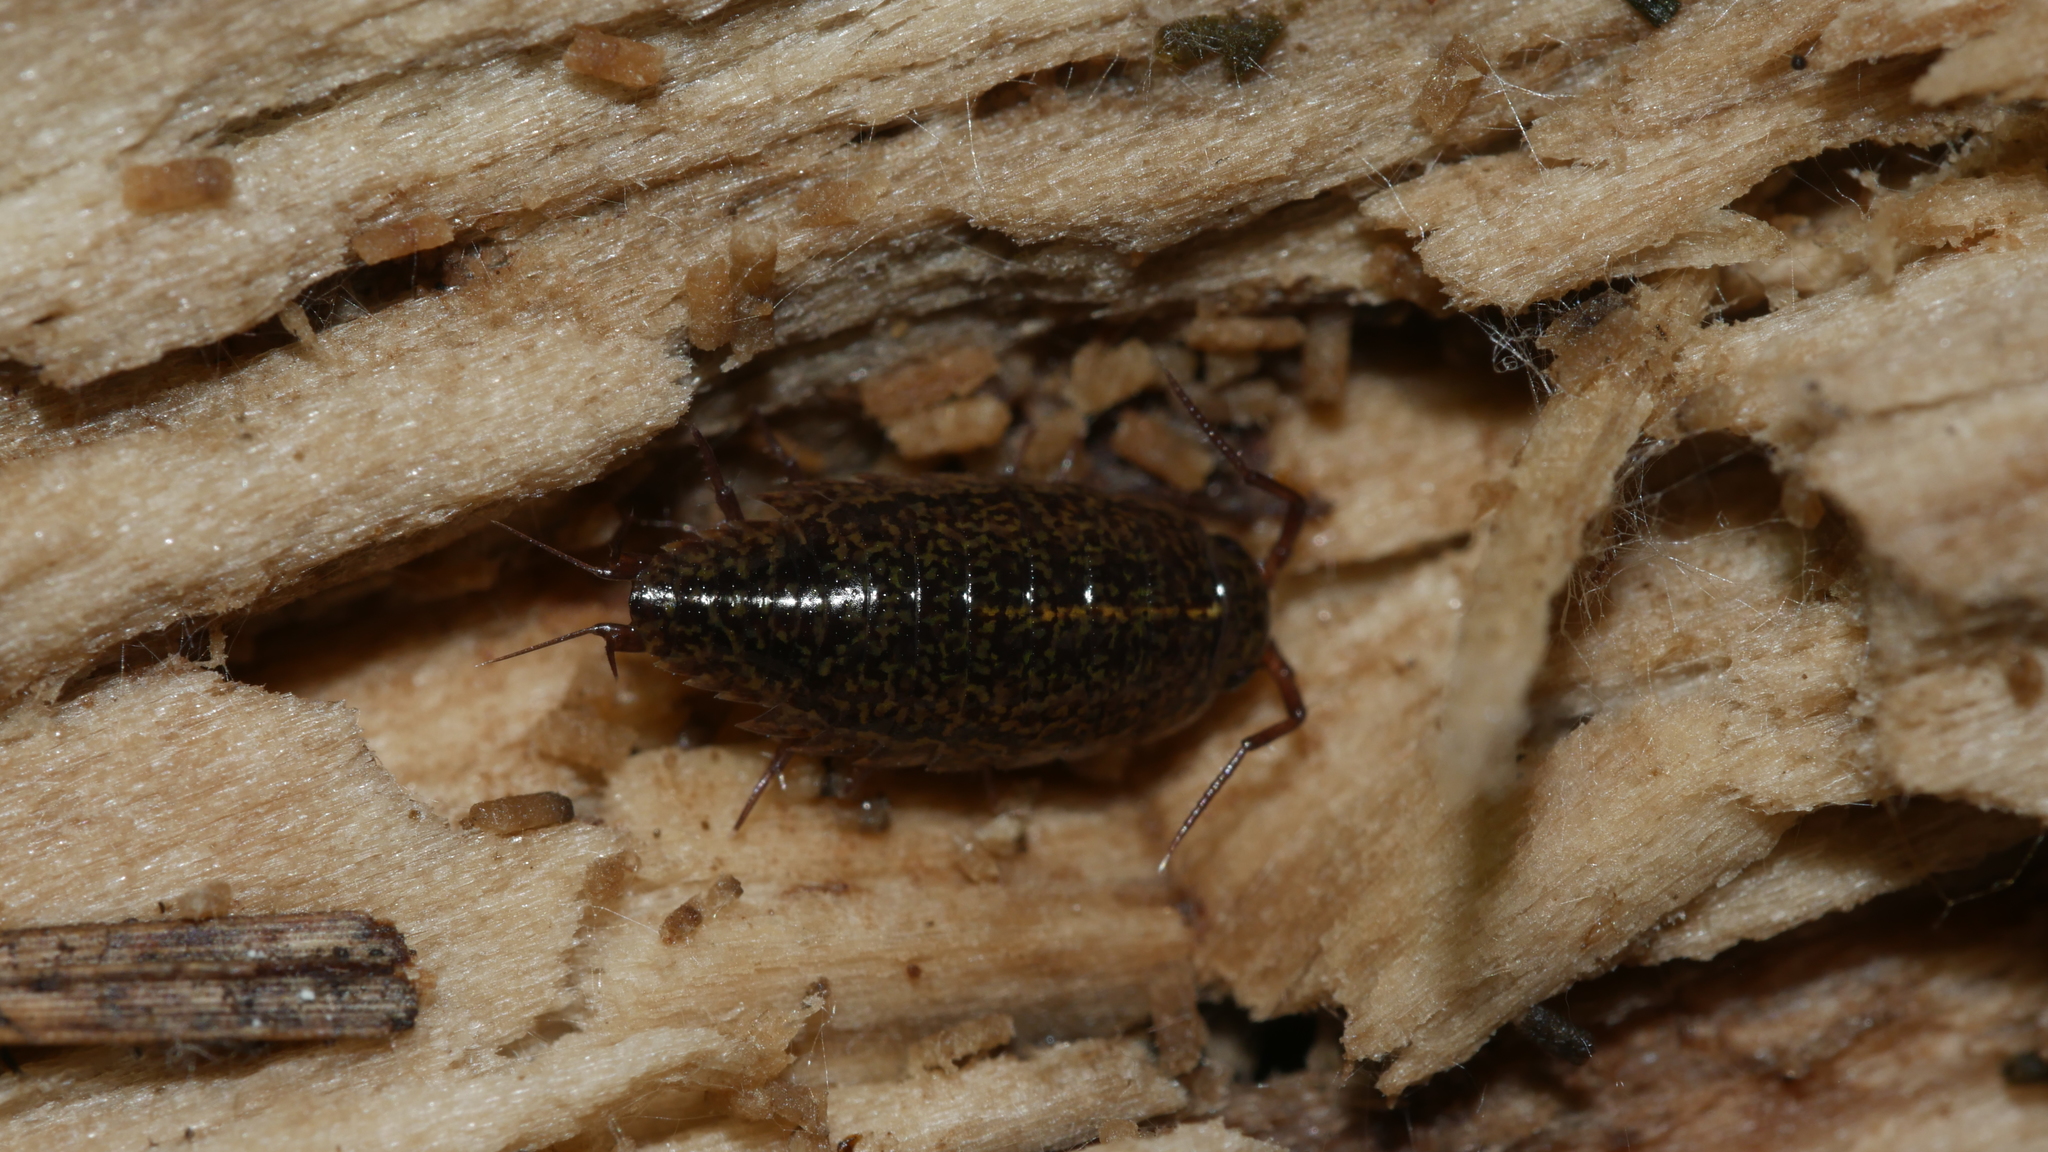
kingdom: Animalia
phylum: Arthropoda
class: Malacostraca
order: Isopoda
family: Ligiidae
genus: Ligidium
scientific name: Ligidium elrodii
